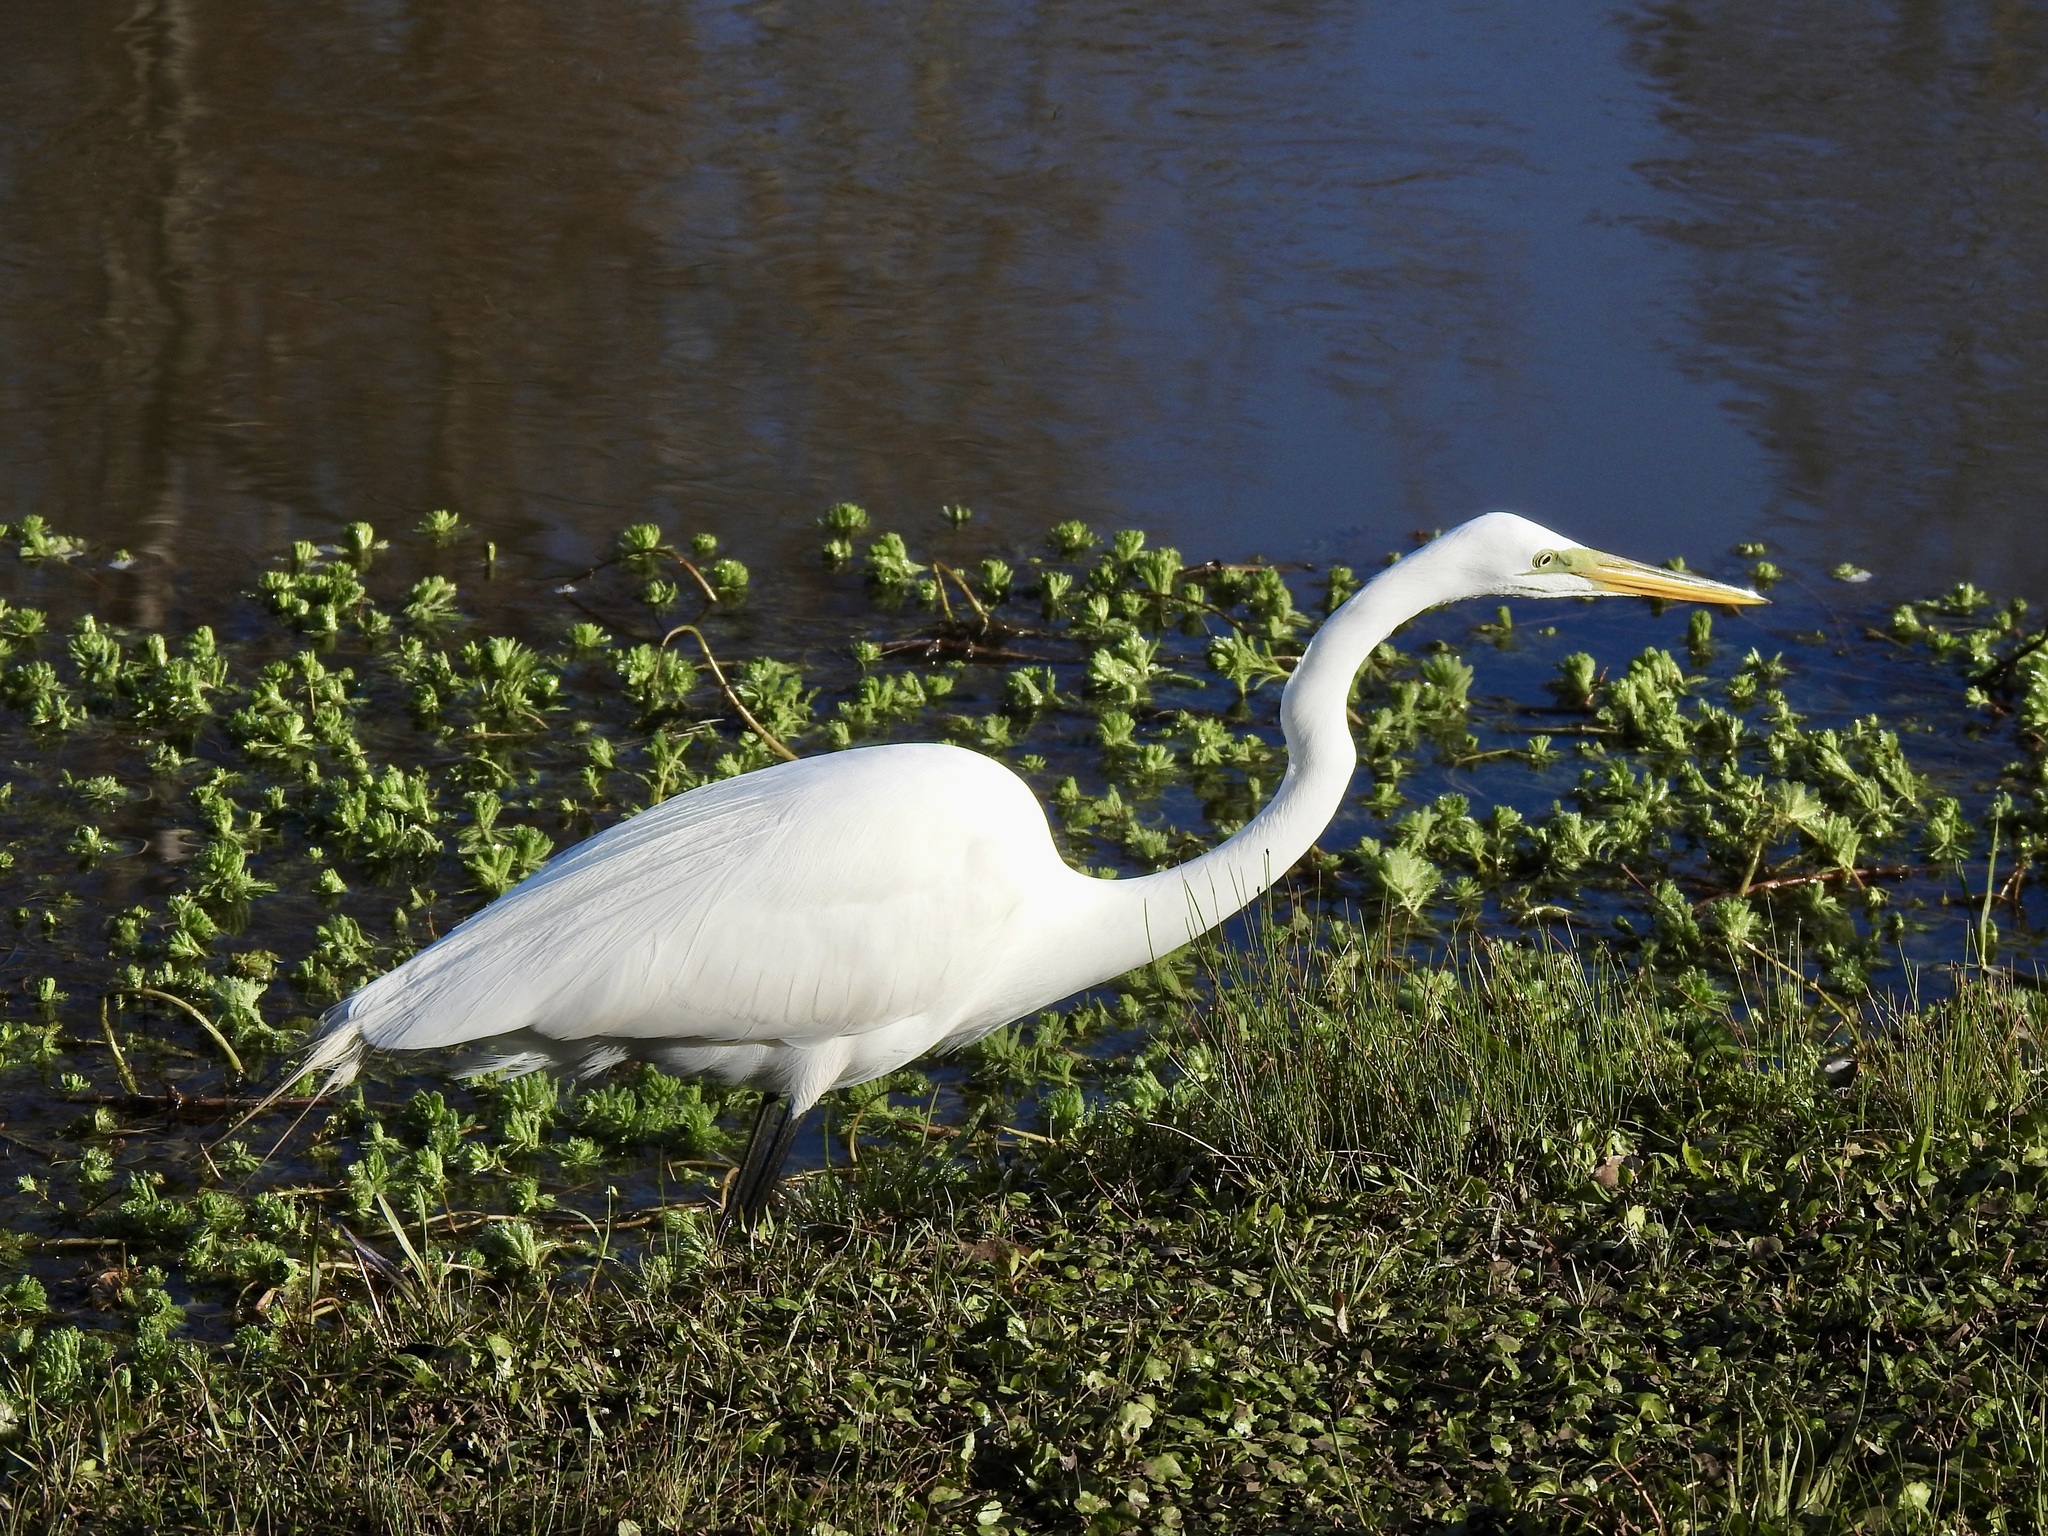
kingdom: Animalia
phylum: Chordata
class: Aves
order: Pelecaniformes
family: Ardeidae
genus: Ardea
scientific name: Ardea alba
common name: Great egret
